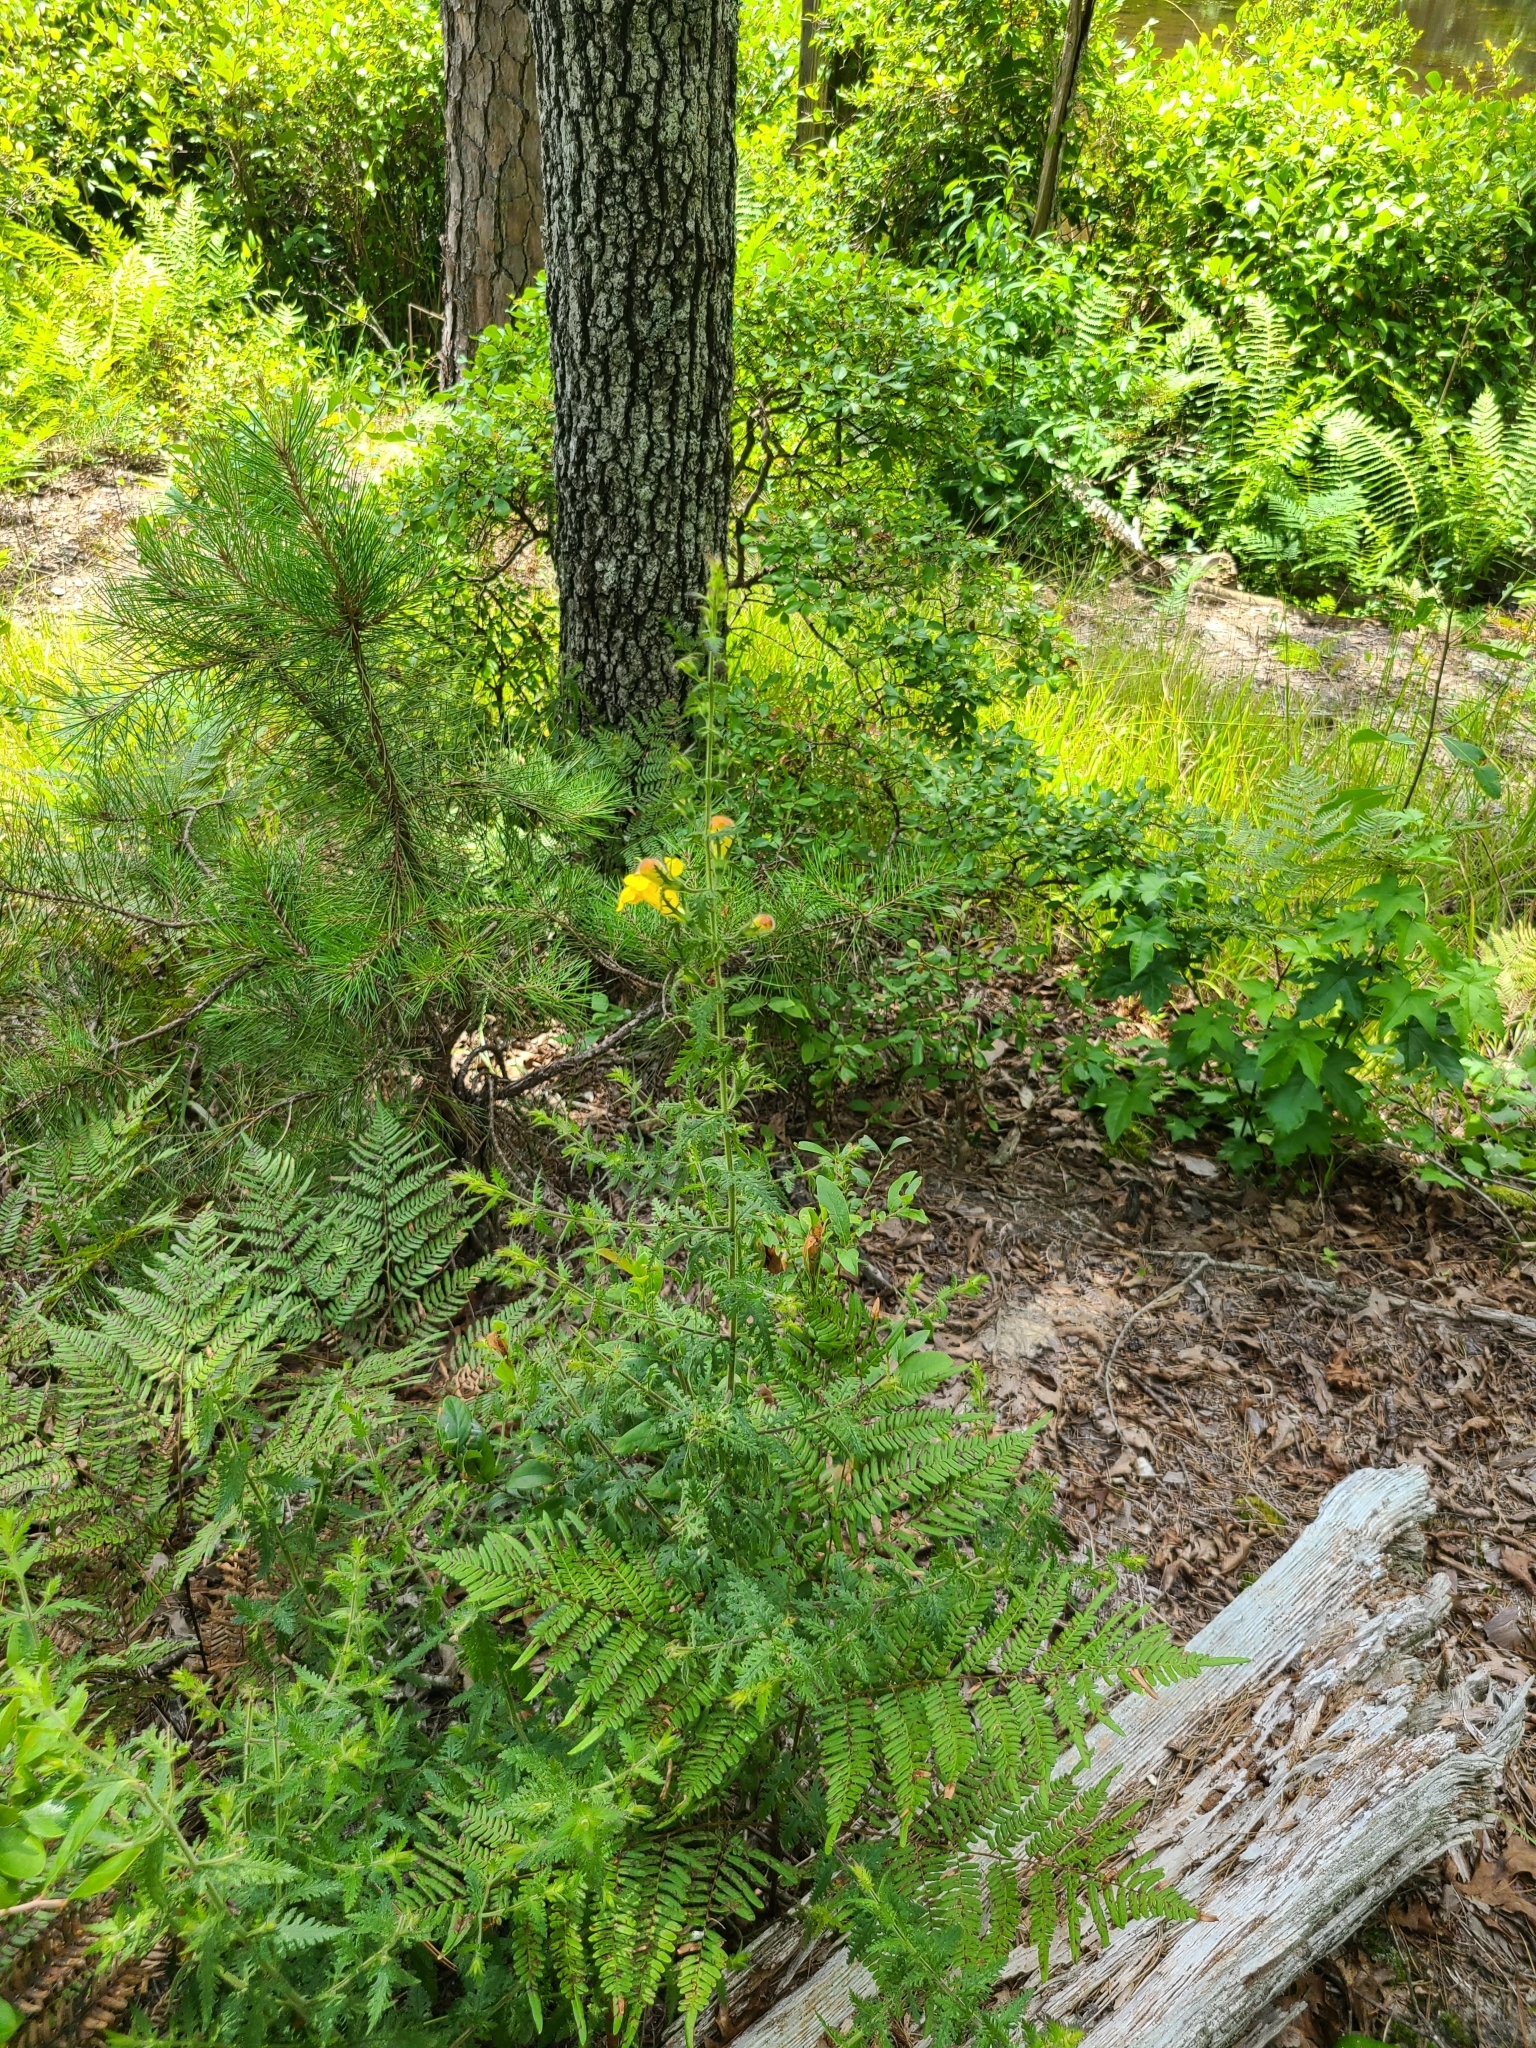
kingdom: Plantae
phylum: Tracheophyta
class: Magnoliopsida
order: Lamiales
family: Orobanchaceae
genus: Aureolaria
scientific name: Aureolaria pectinata
